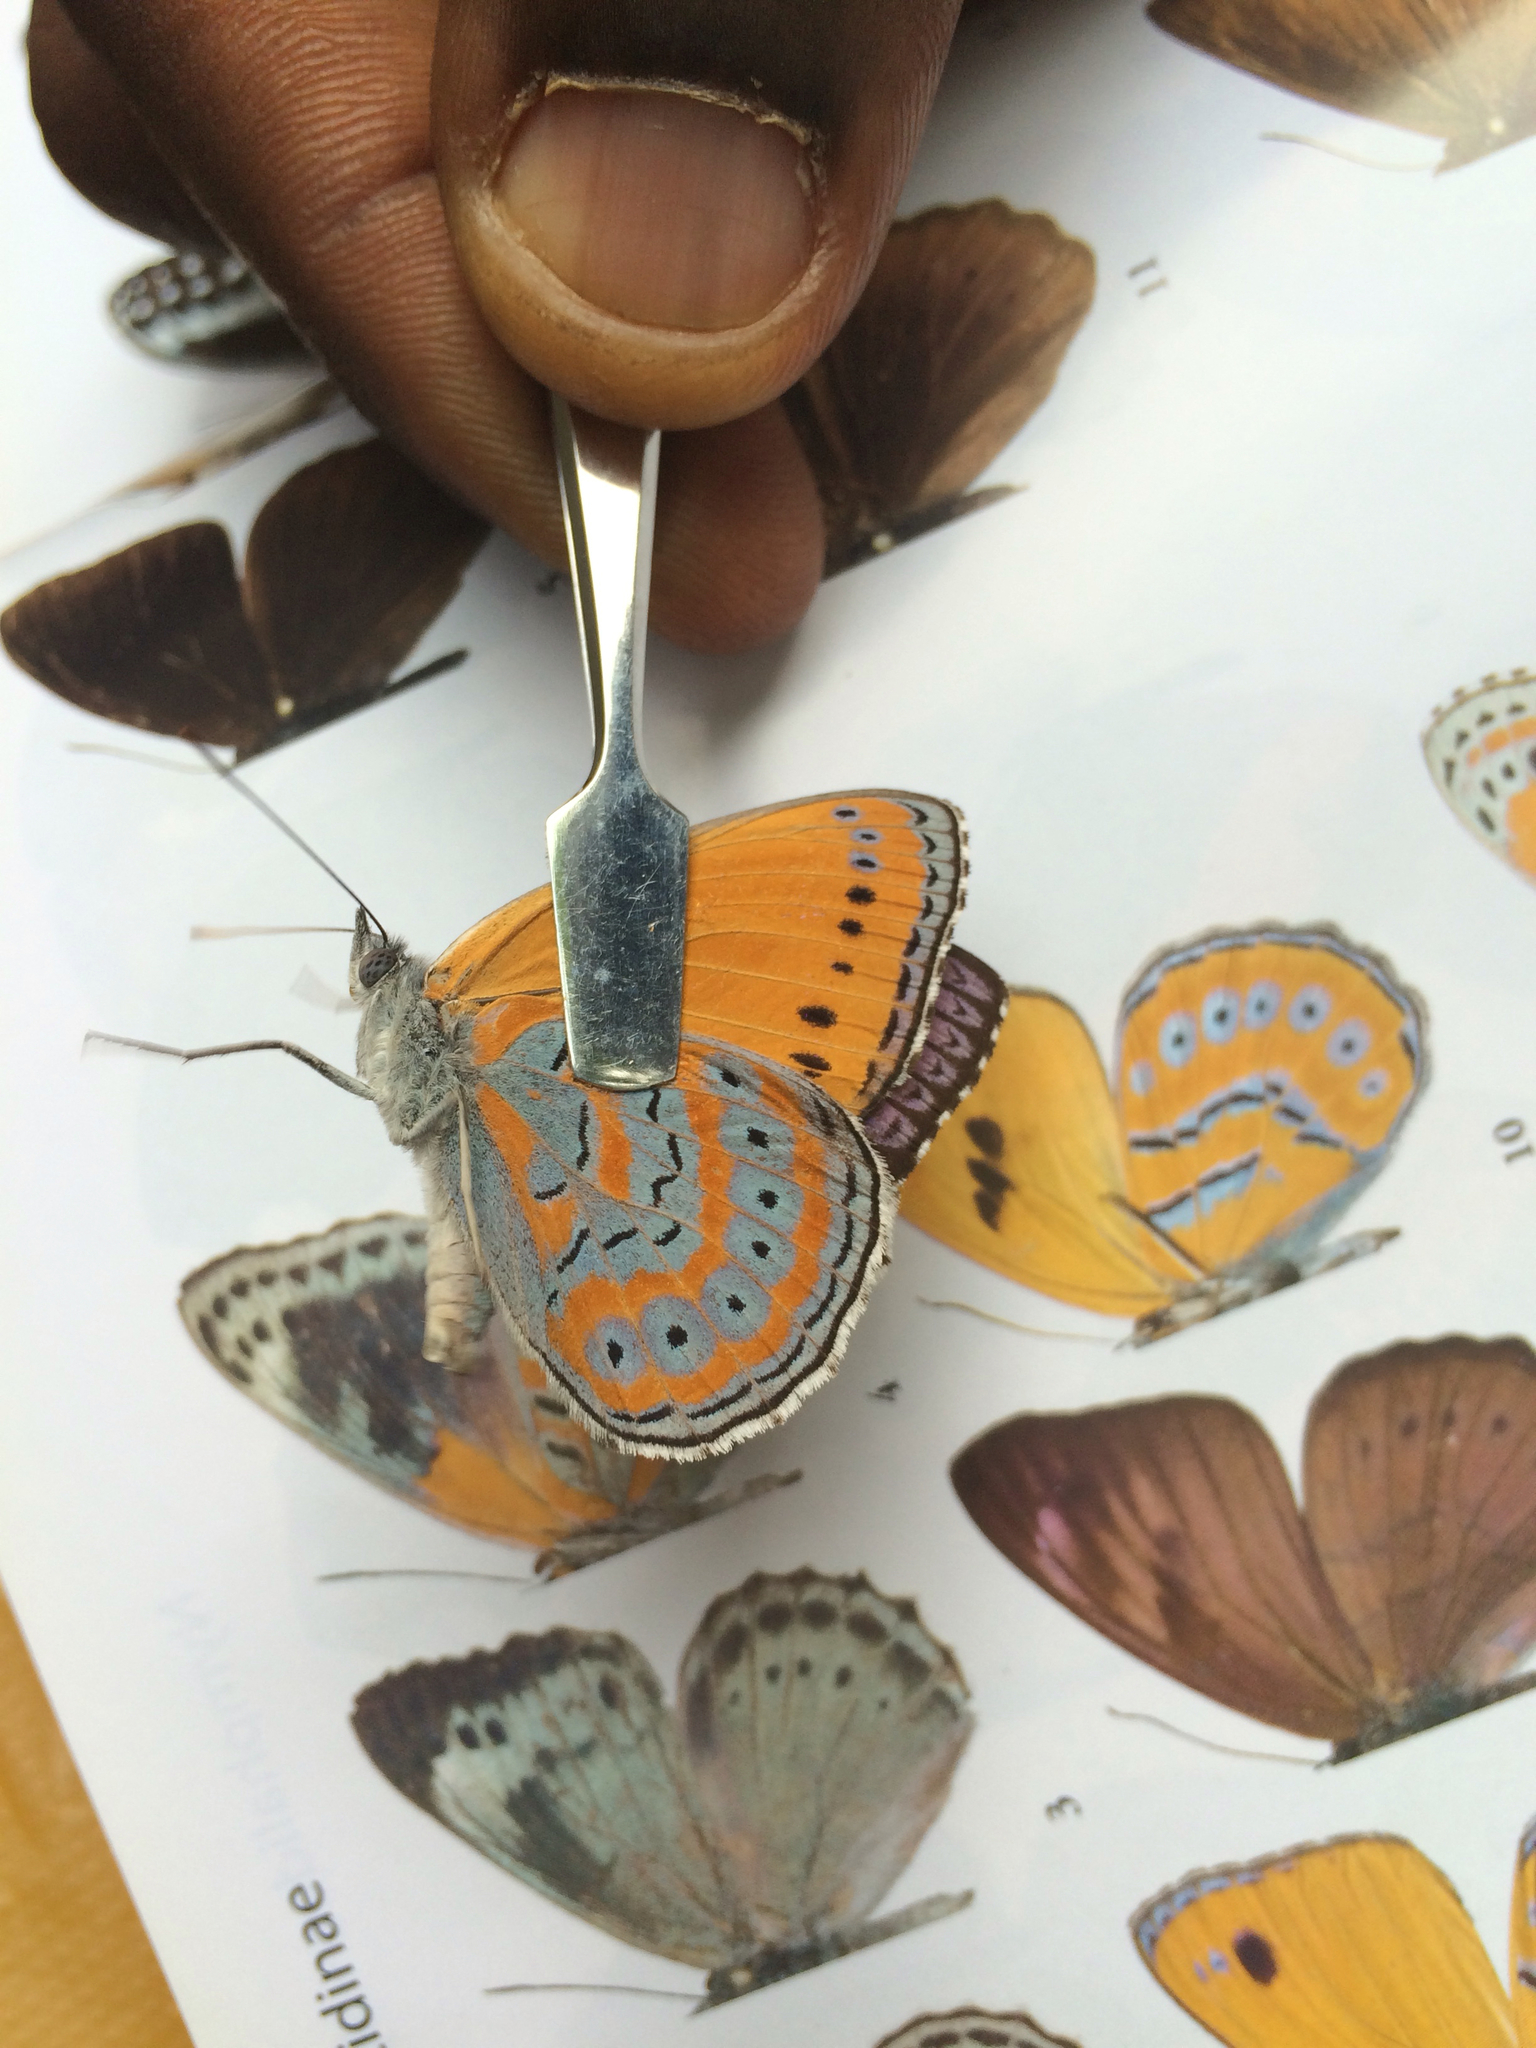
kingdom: Animalia
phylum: Arthropoda
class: Insecta
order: Lepidoptera
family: Nymphalidae
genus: Sevenia
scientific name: Sevenia
